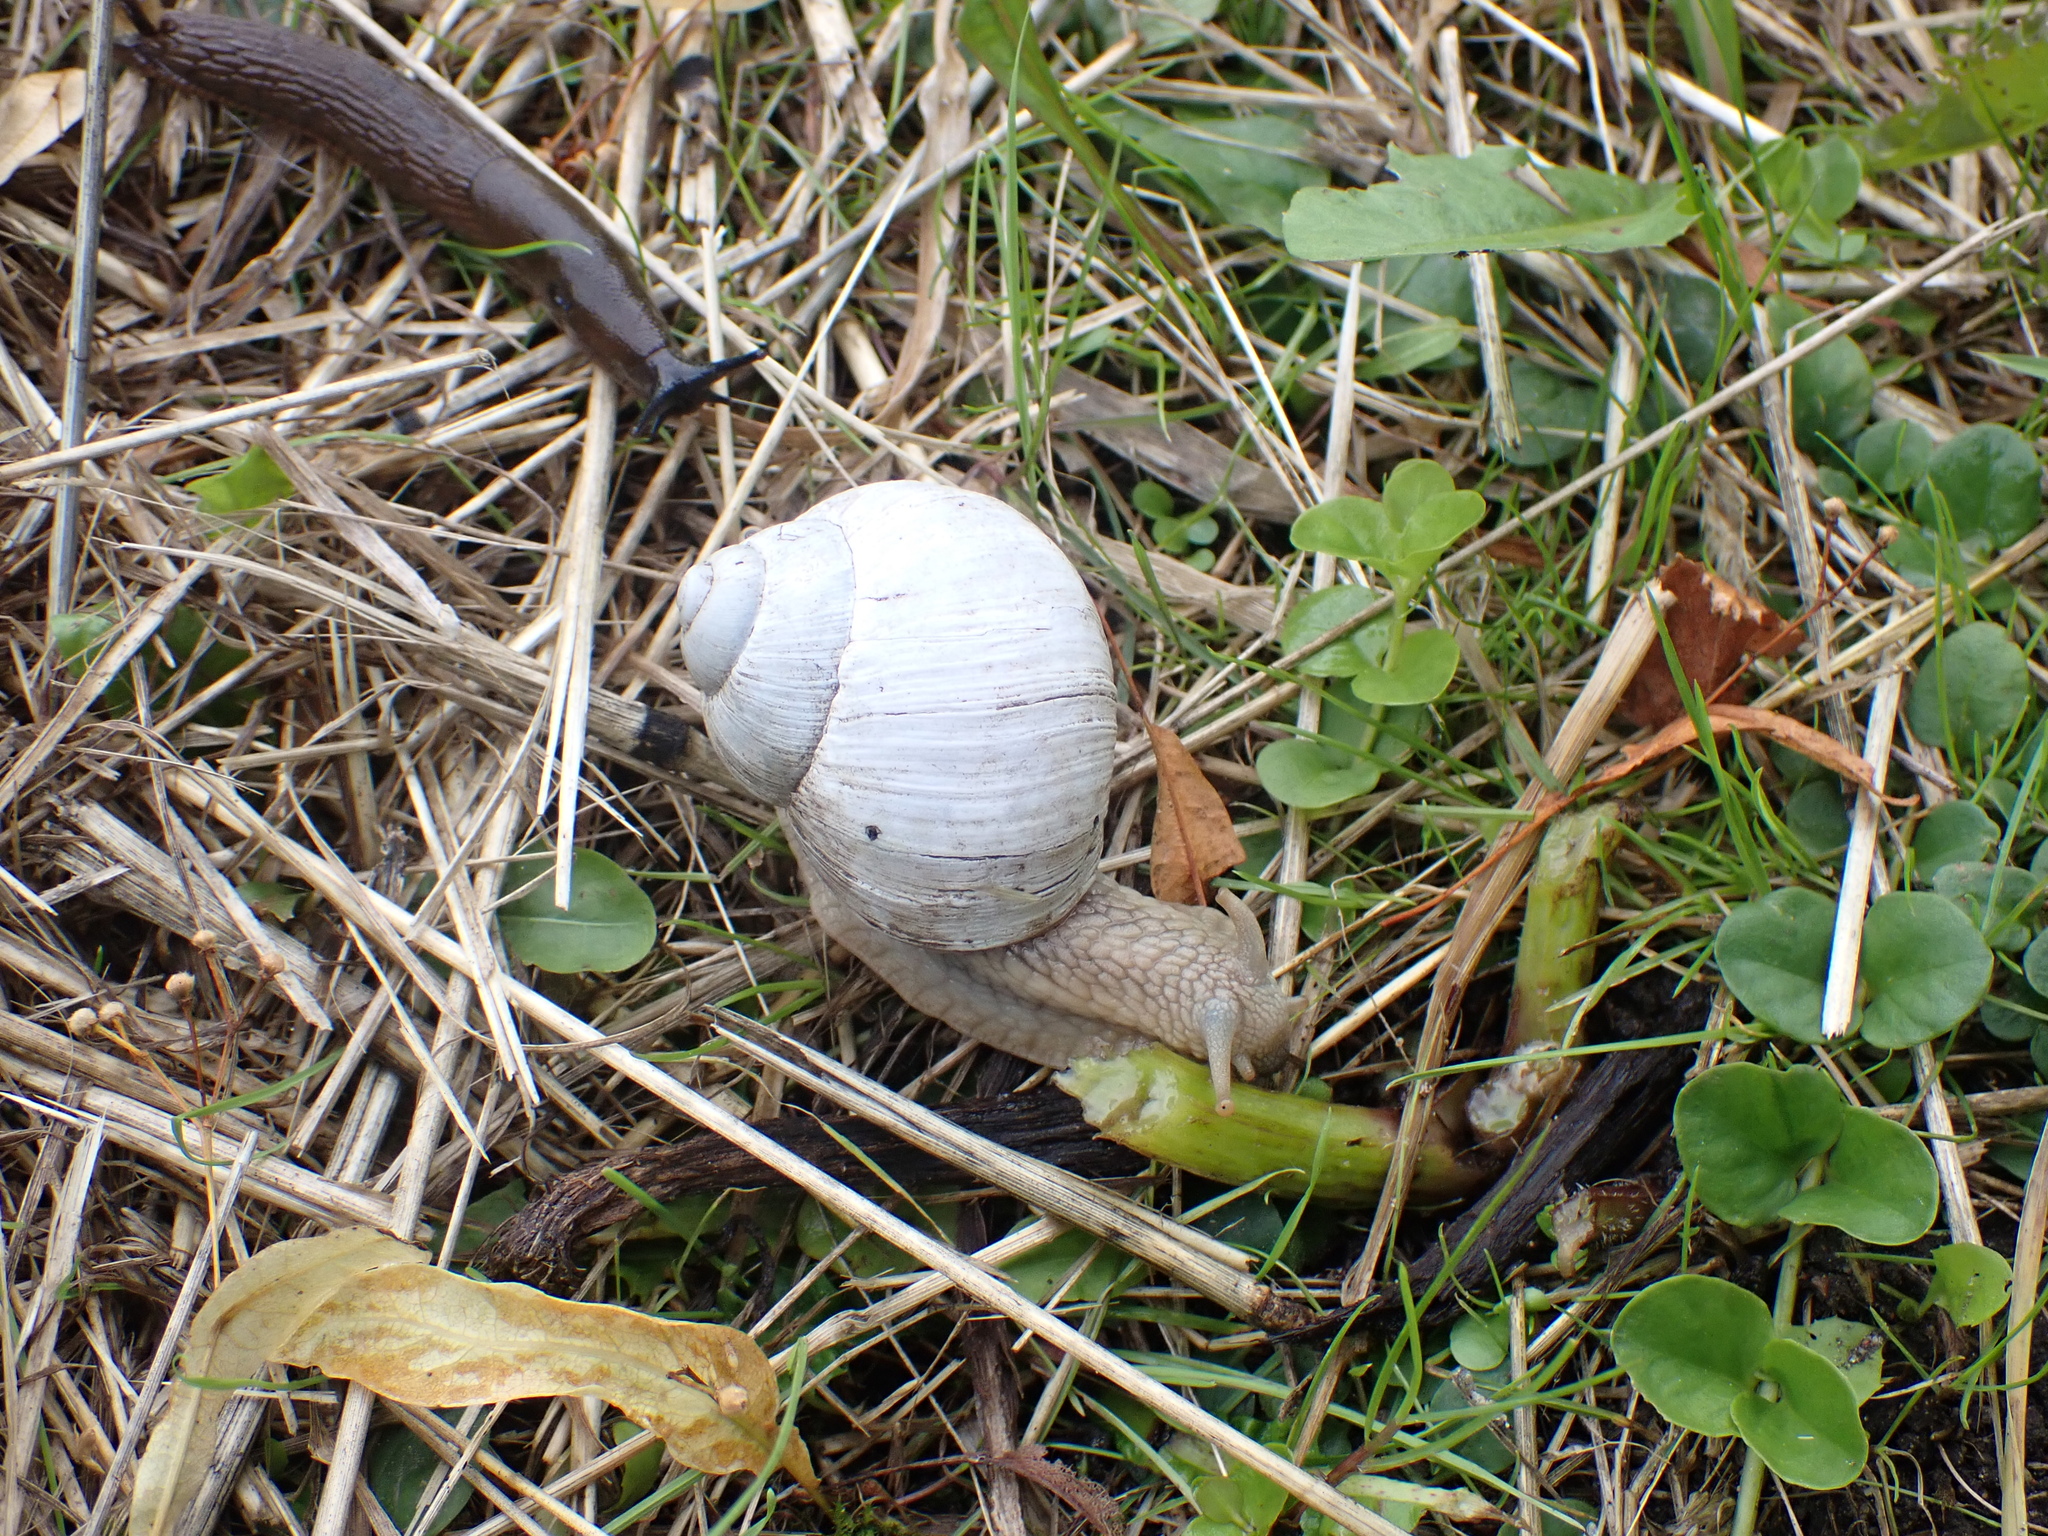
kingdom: Animalia
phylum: Mollusca
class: Gastropoda
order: Stylommatophora
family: Helicidae
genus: Helix
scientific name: Helix pomatia
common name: Roman snail
